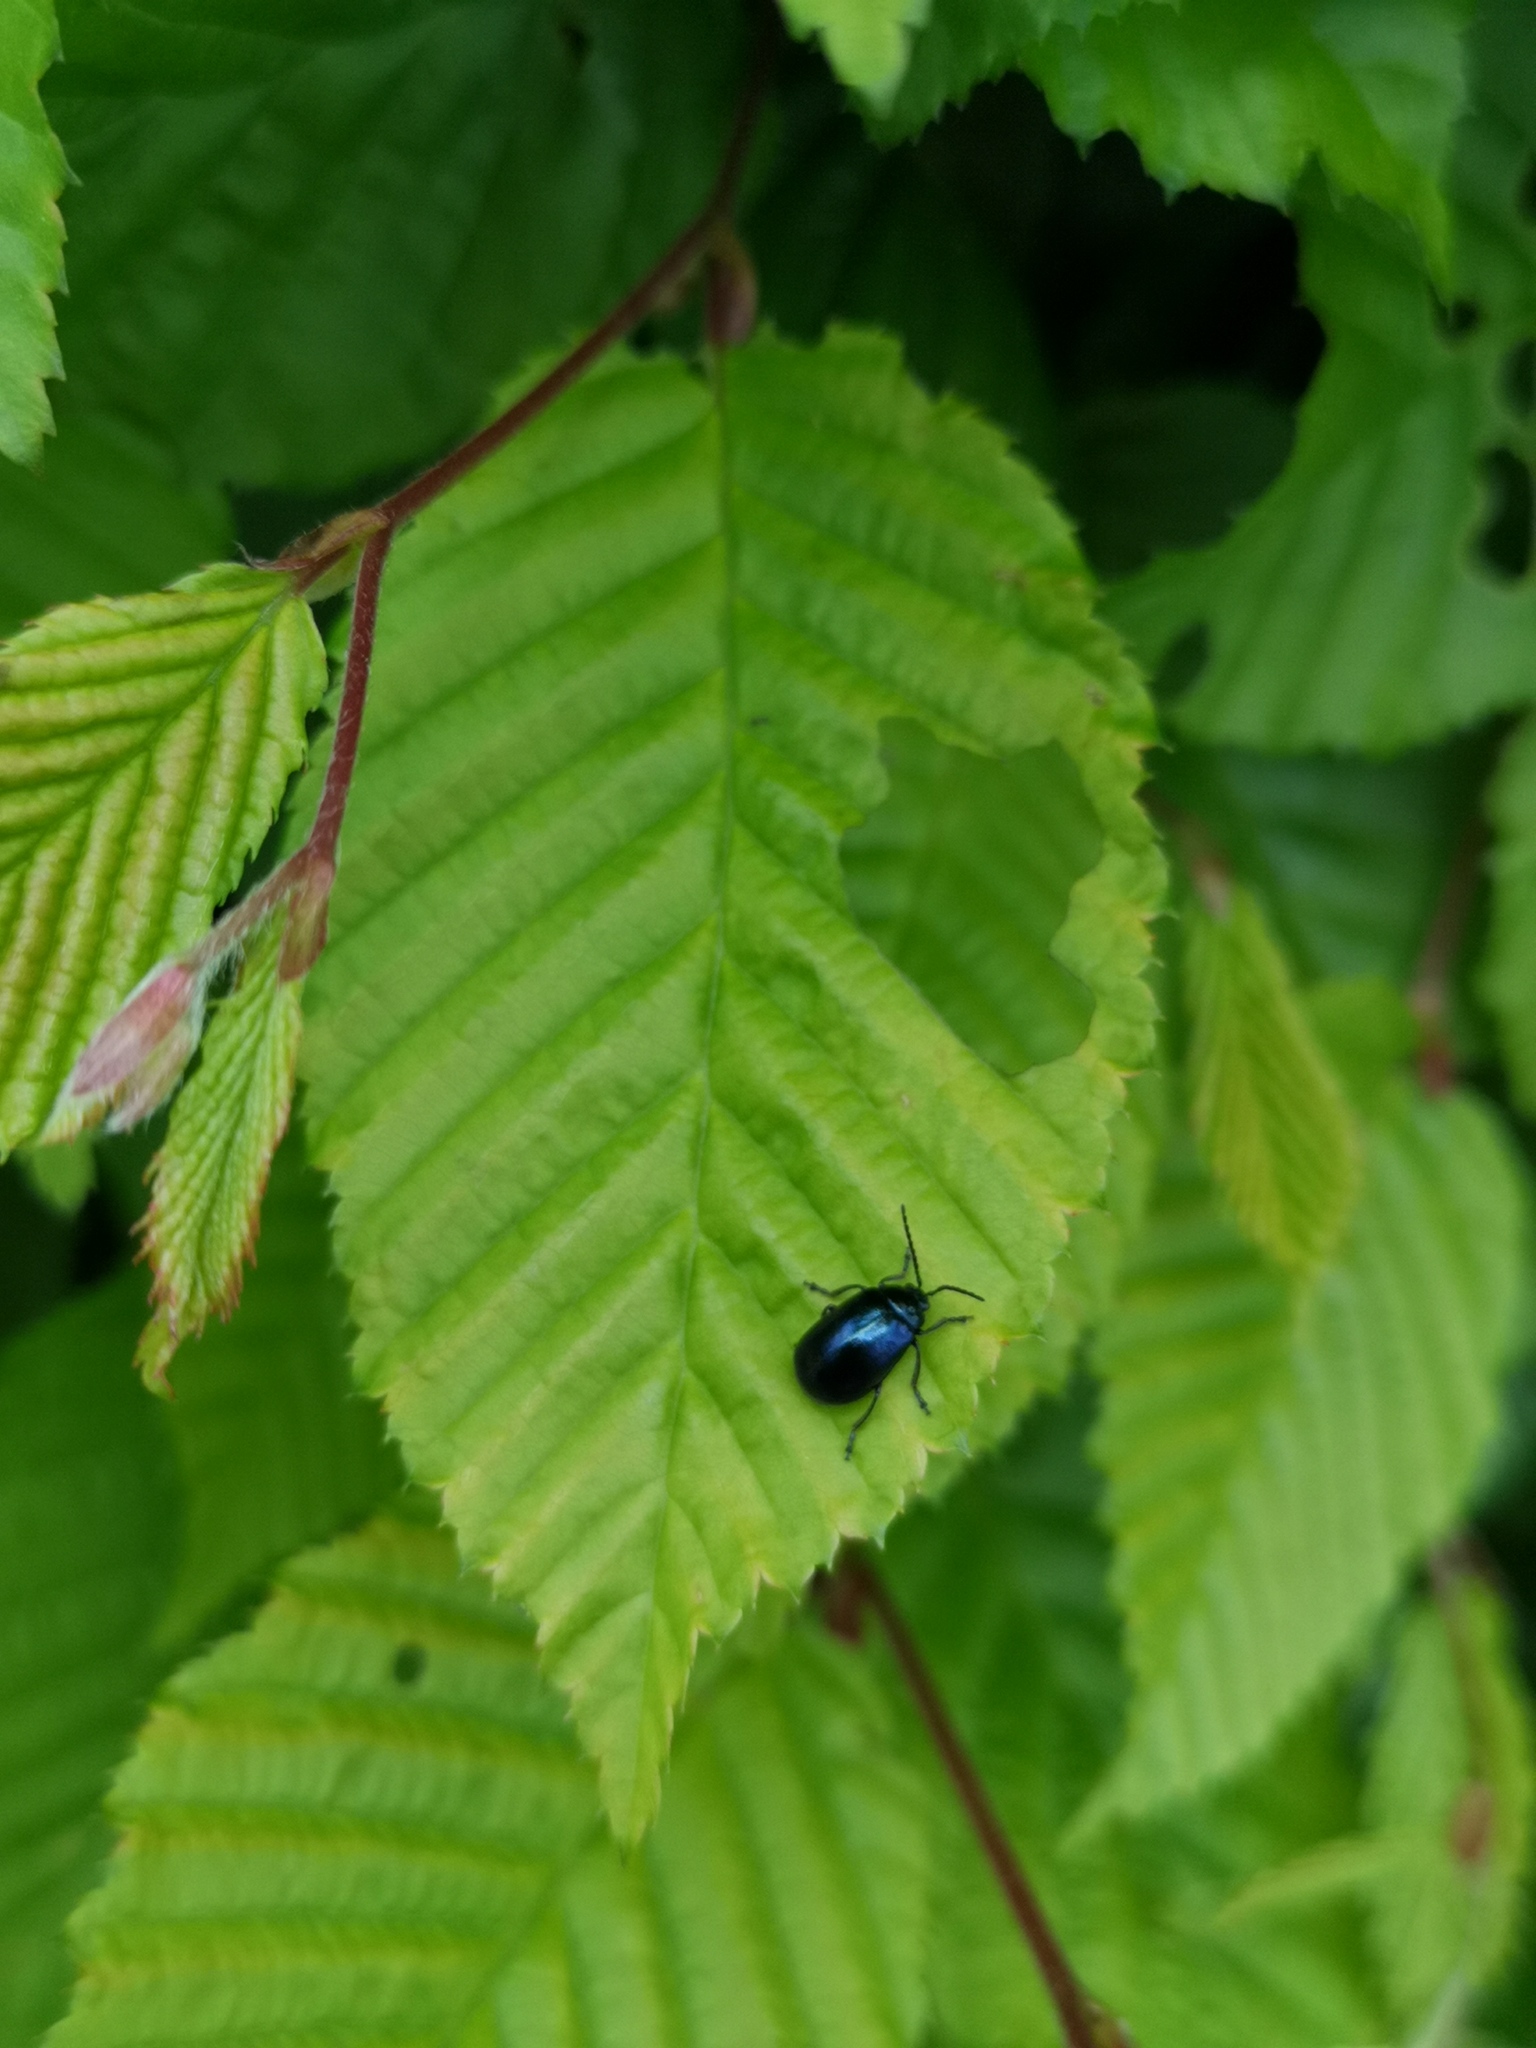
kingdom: Animalia
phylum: Arthropoda
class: Insecta
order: Coleoptera
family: Chrysomelidae
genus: Agelastica
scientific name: Agelastica alni
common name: Alder leaf beetle
